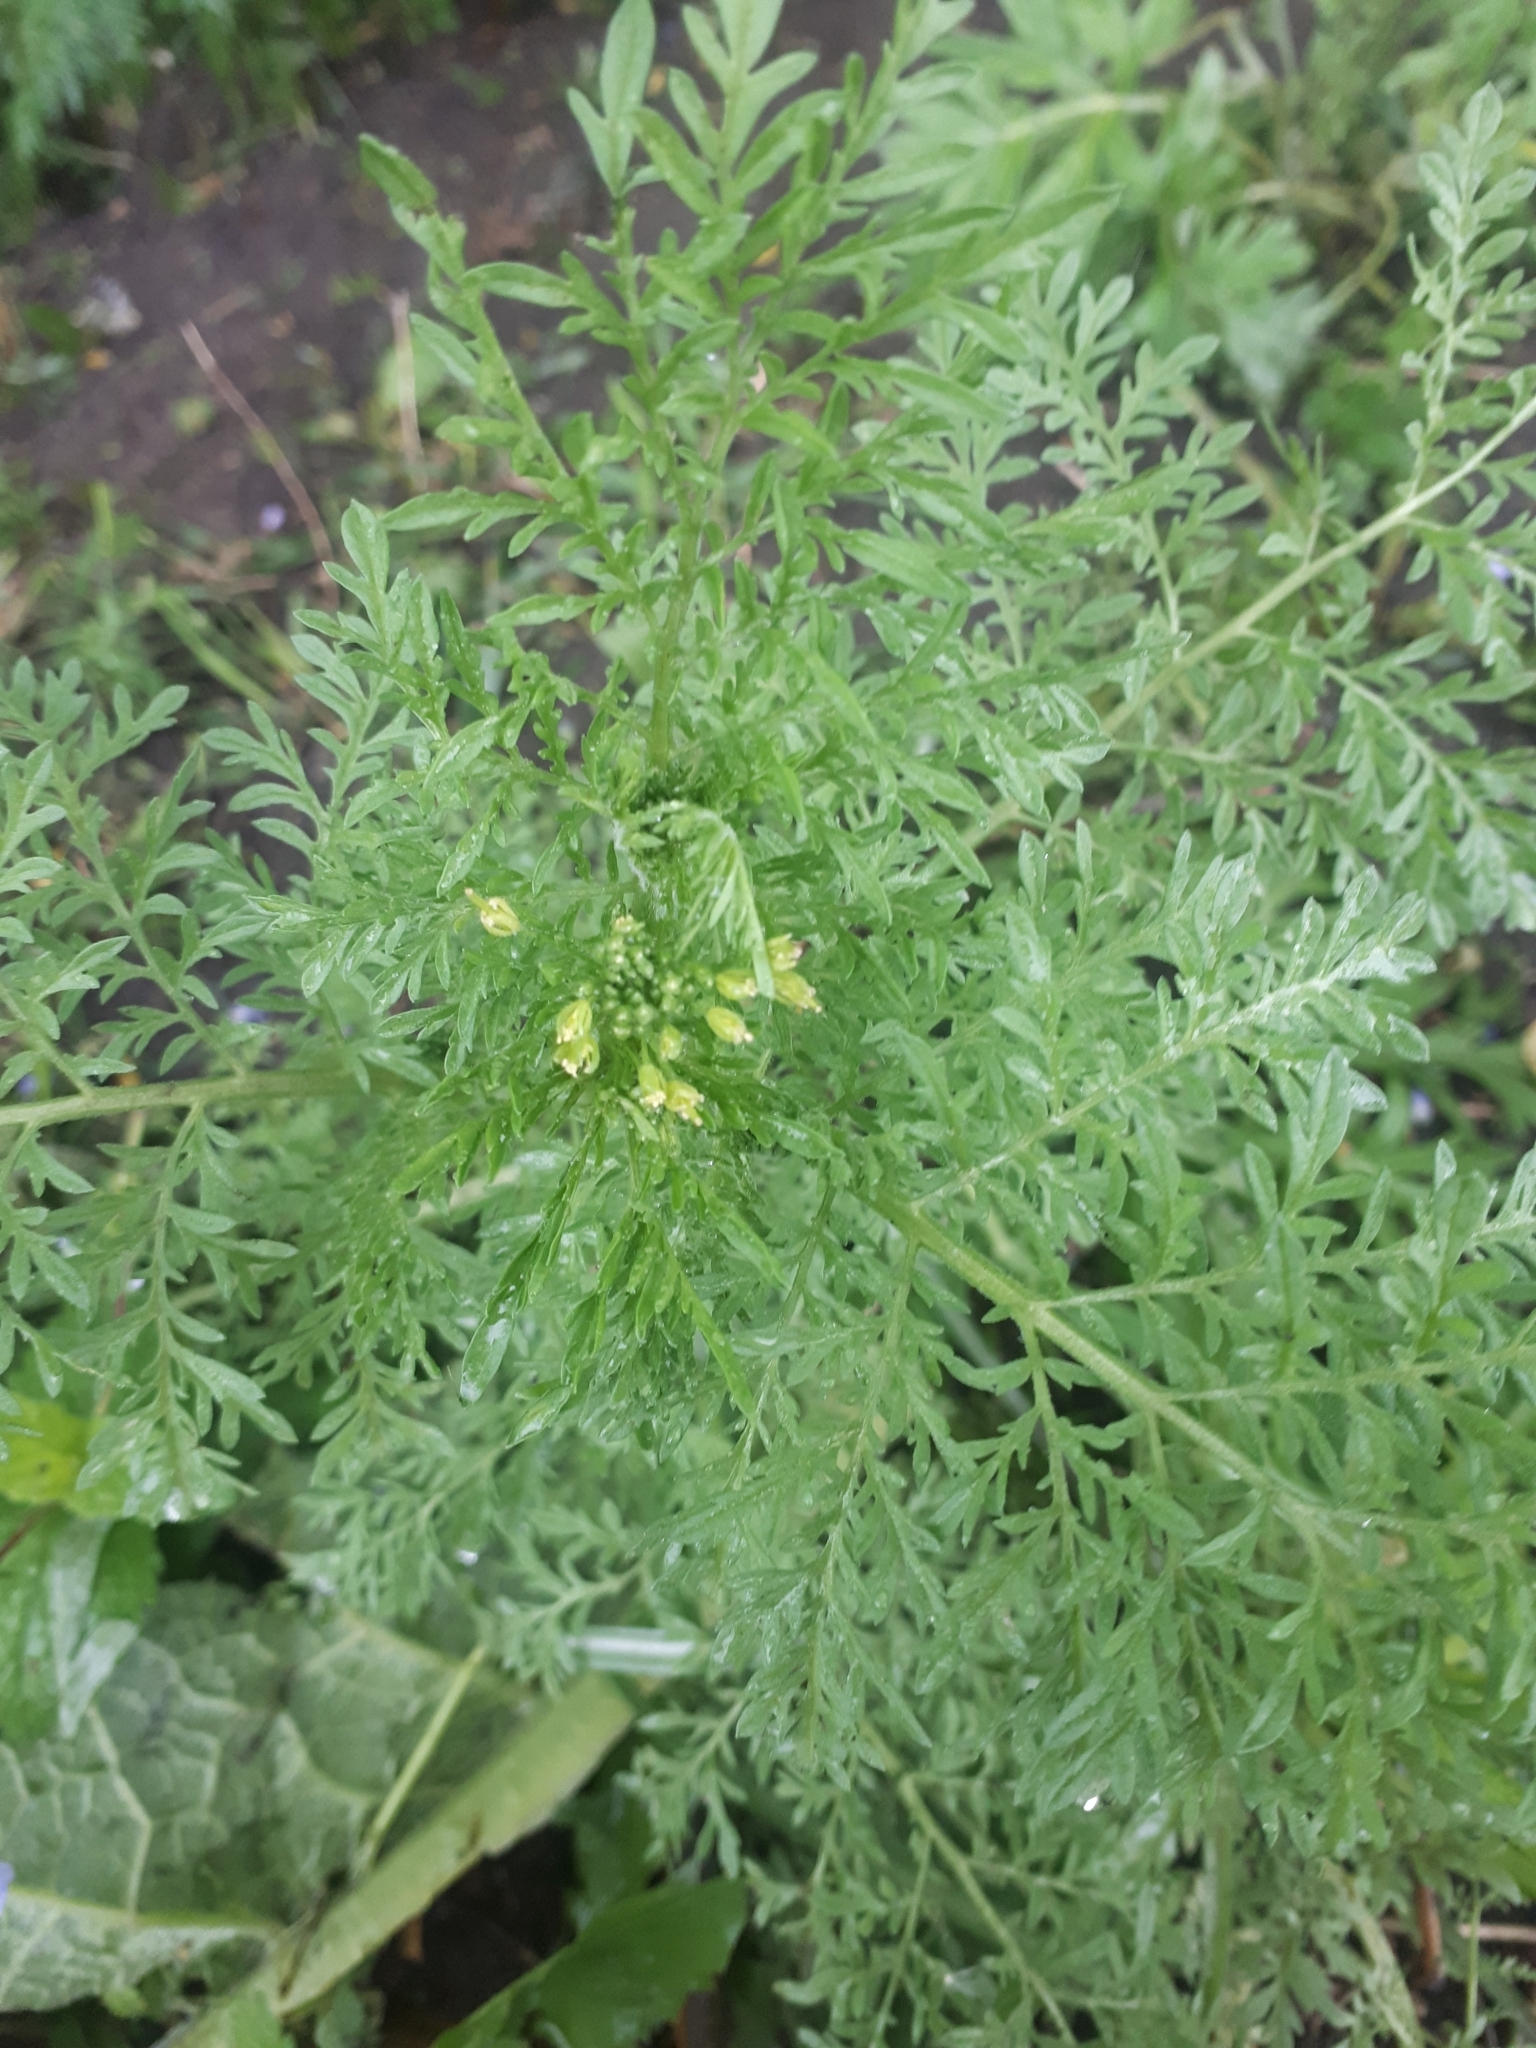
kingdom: Plantae
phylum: Tracheophyta
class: Magnoliopsida
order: Brassicales
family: Brassicaceae
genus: Descurainia
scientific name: Descurainia sophia
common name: Flixweed
